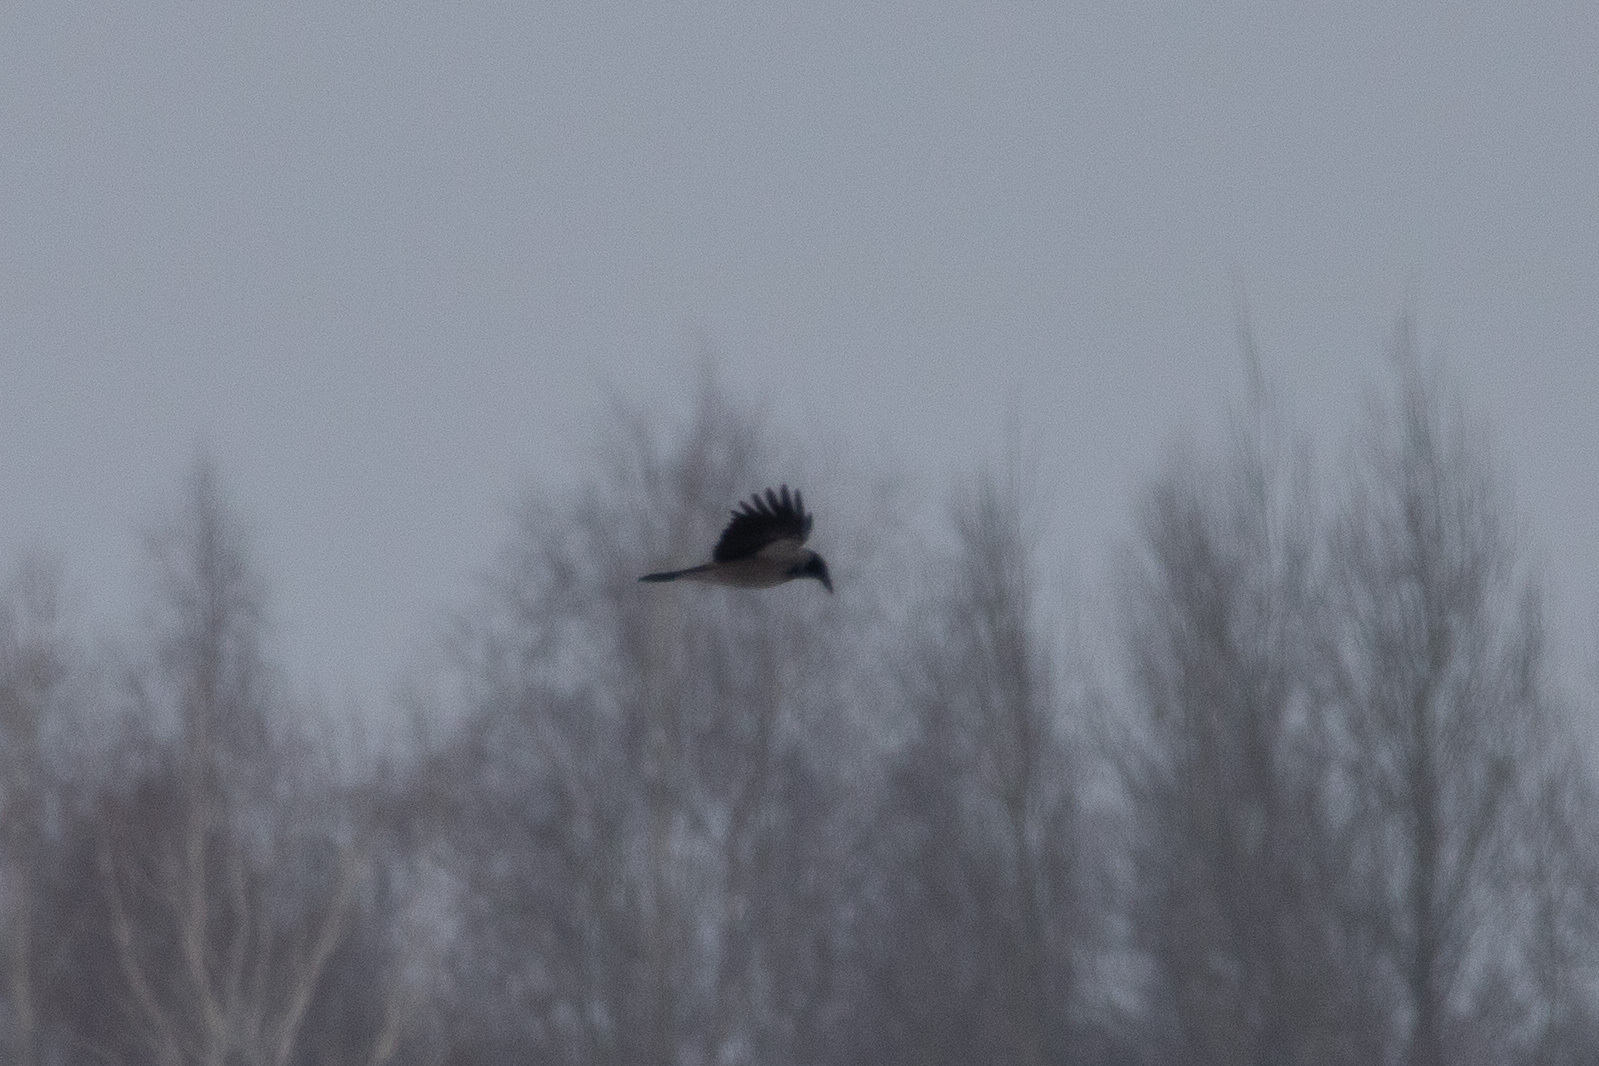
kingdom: Animalia
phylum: Chordata
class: Aves
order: Passeriformes
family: Corvidae
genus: Corvus
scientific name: Corvus cornix
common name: Hooded crow
